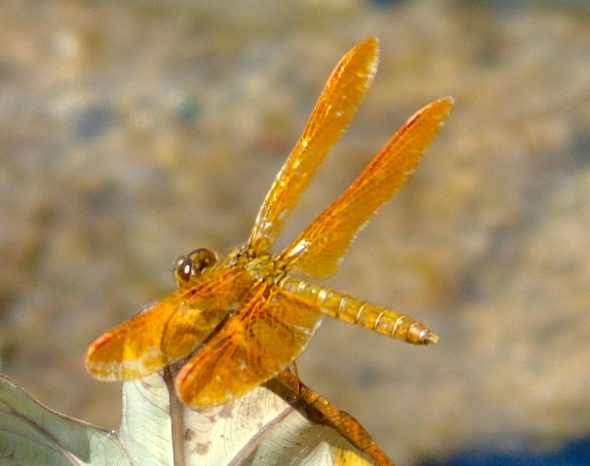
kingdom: Animalia
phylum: Arthropoda
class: Insecta
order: Odonata
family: Libellulidae
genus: Perithemis
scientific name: Perithemis intensa
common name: Mexican amberwing
